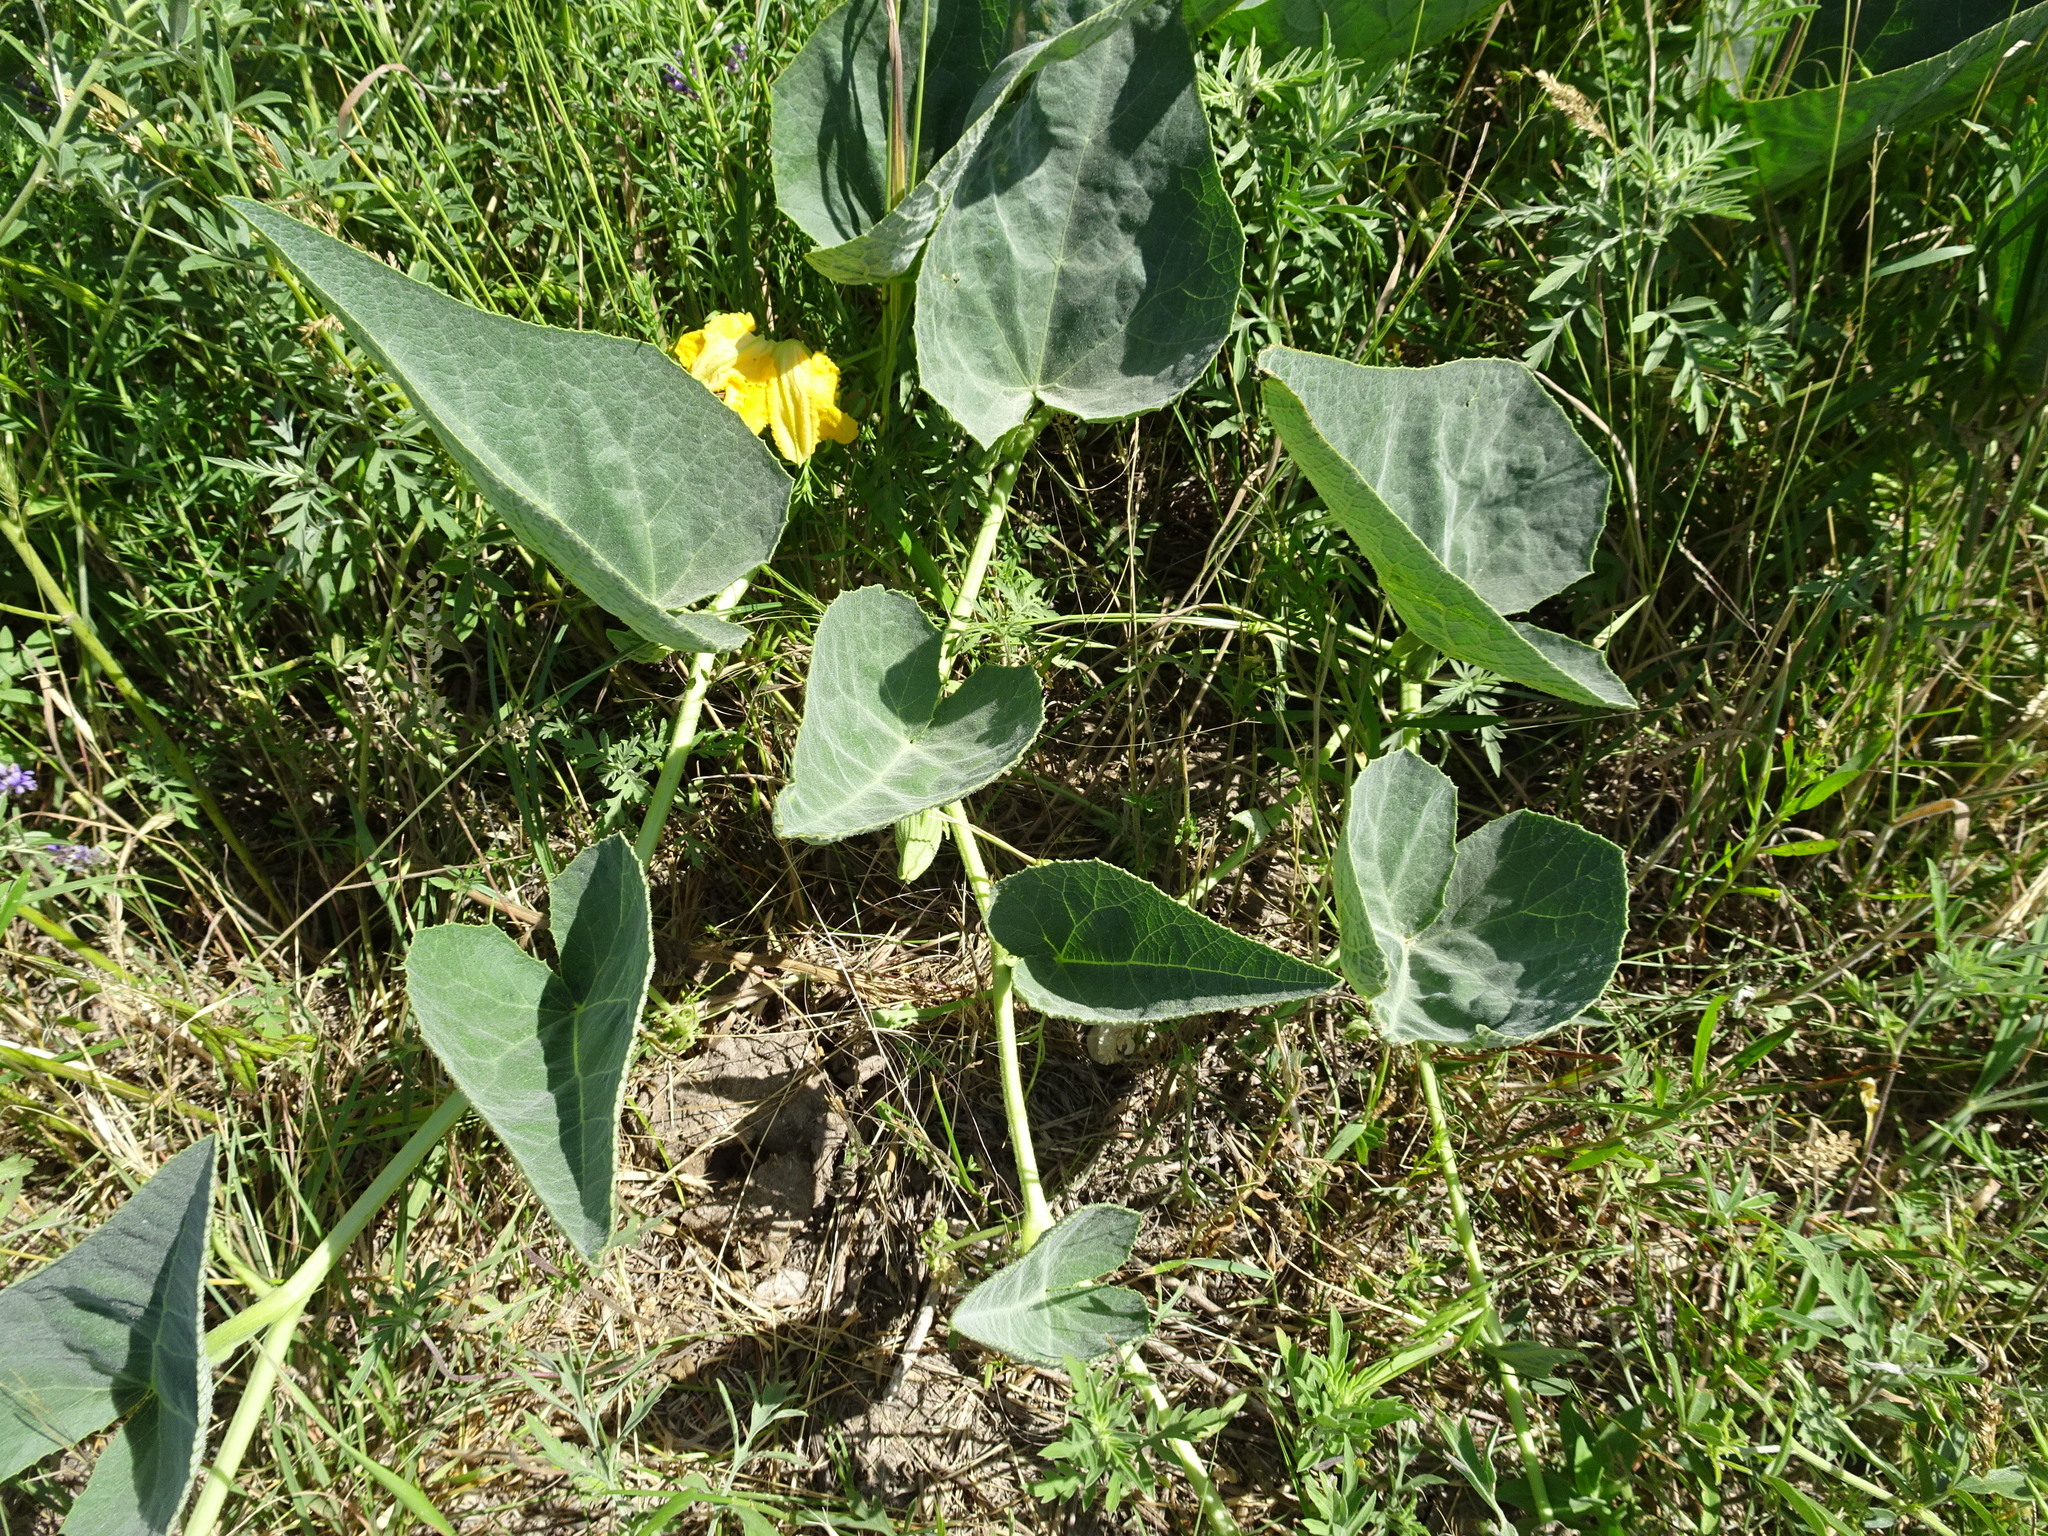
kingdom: Plantae
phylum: Tracheophyta
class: Magnoliopsida
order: Cucurbitales
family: Cucurbitaceae
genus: Cucurbita
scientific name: Cucurbita foetidissima
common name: Buffalo gourd
